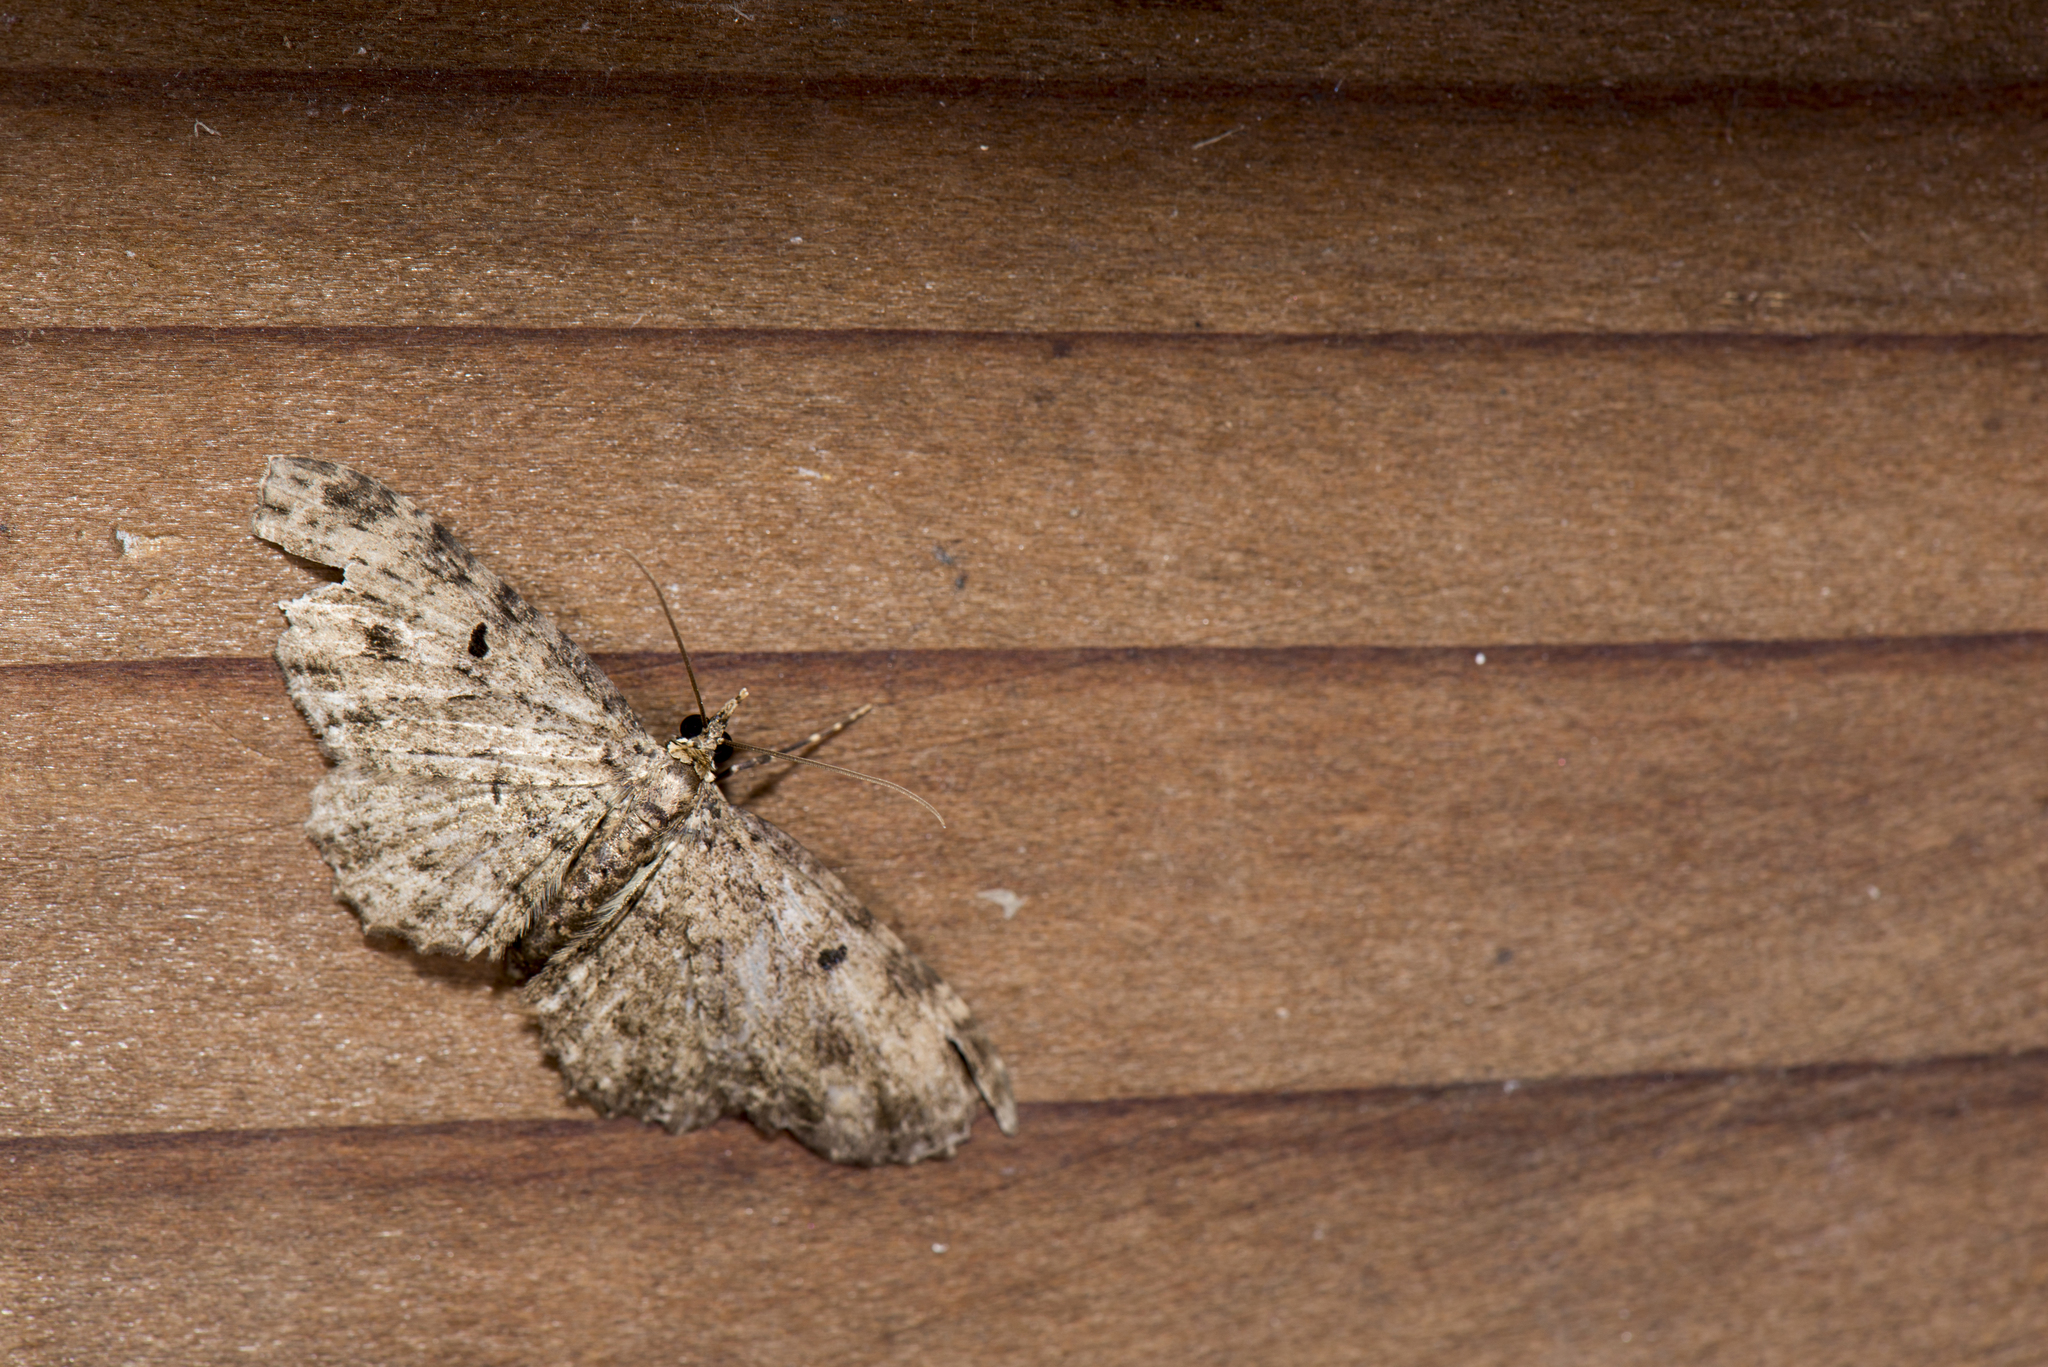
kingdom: Animalia
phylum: Arthropoda
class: Insecta
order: Lepidoptera
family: Geometridae
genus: Collix
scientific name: Collix ghosha
